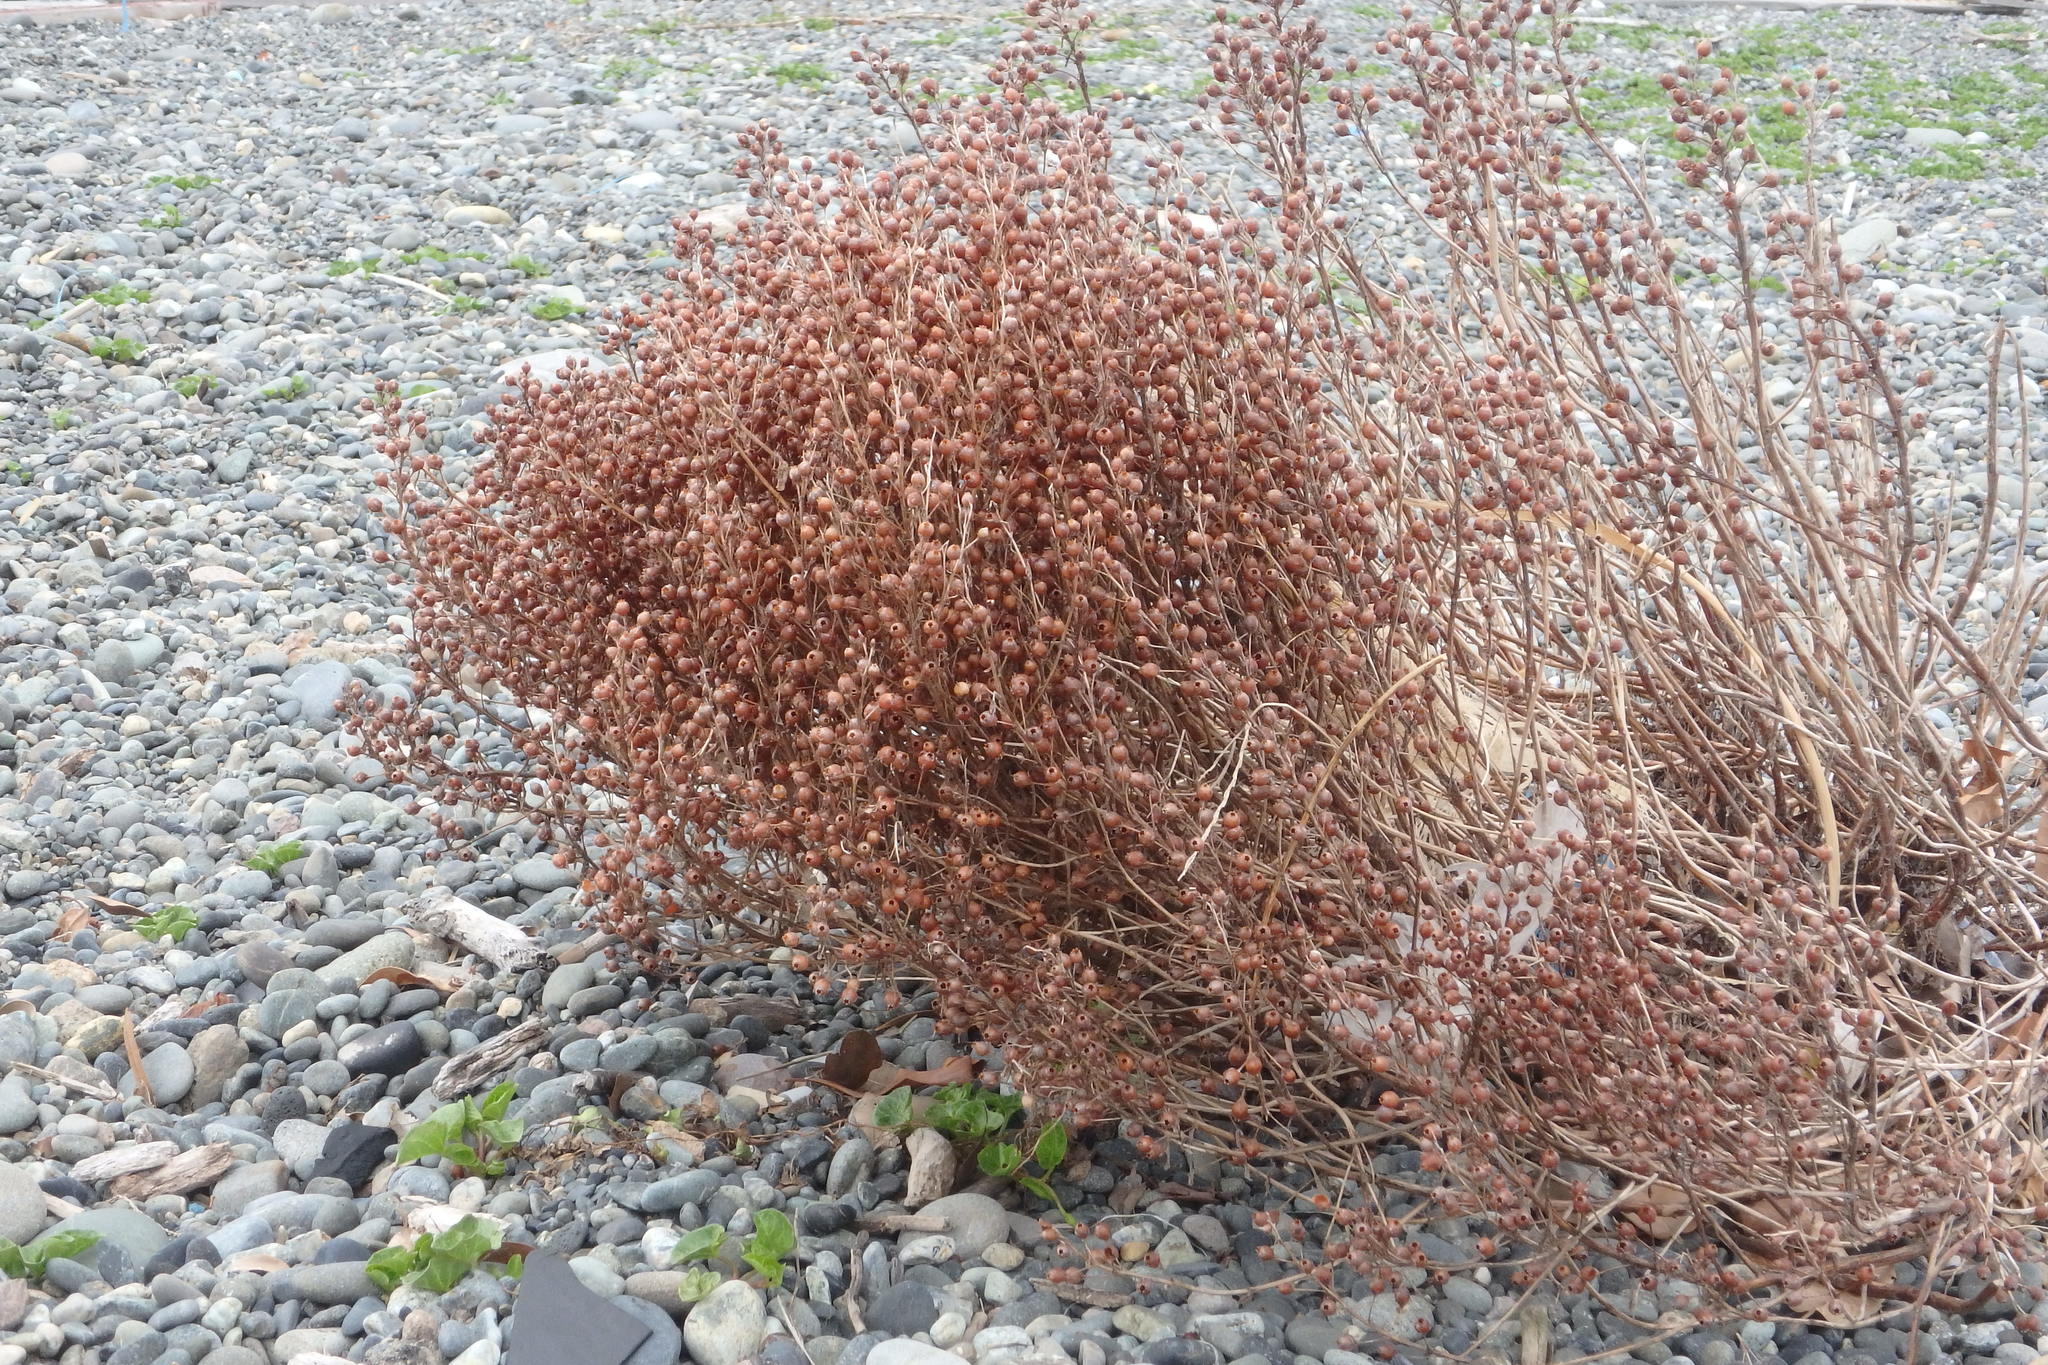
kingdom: Plantae
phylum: Tracheophyta
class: Magnoliopsida
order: Ericales
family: Primulaceae
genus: Lysimachia
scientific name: Lysimachia mauritiana
